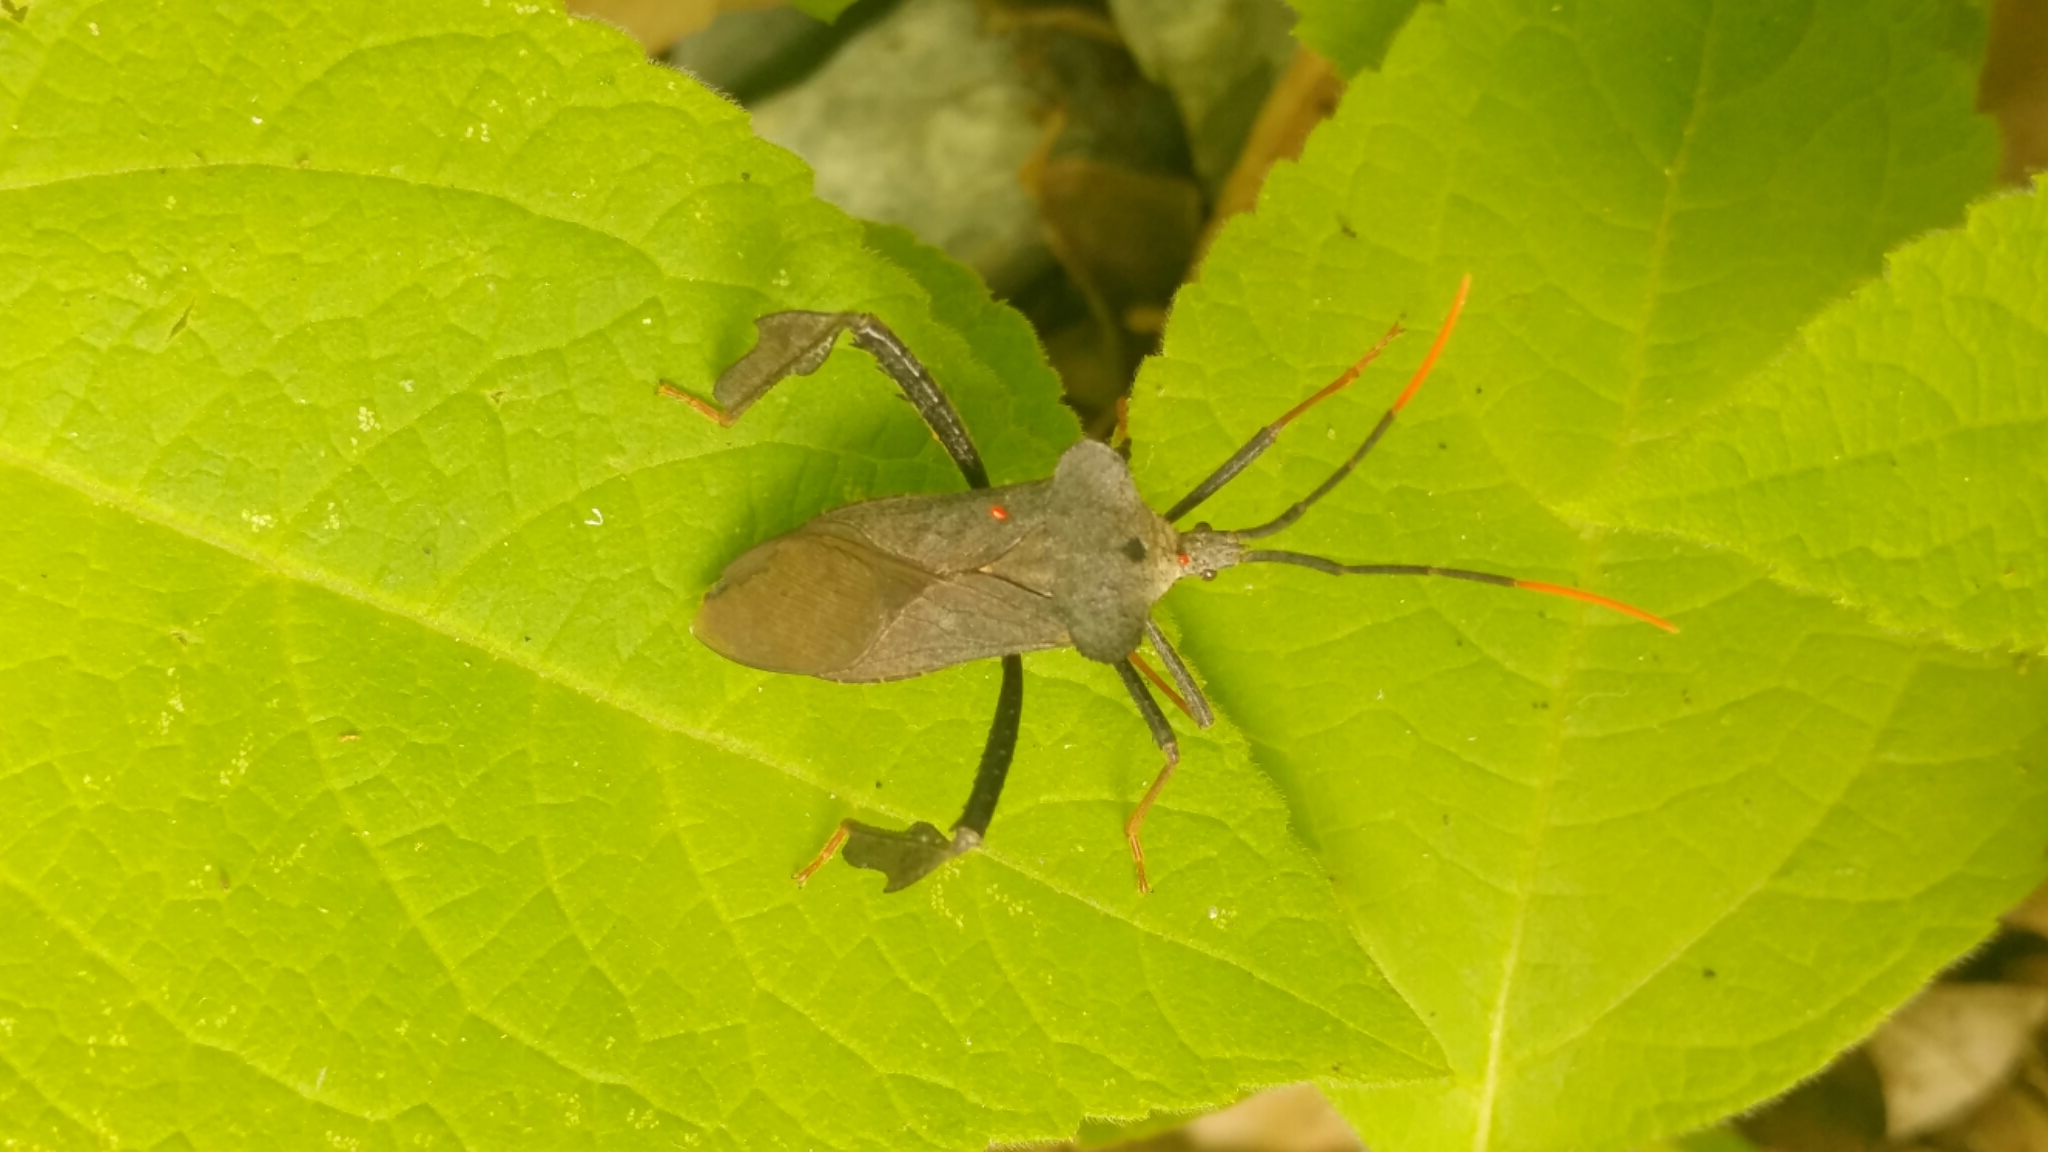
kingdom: Animalia
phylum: Arthropoda
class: Insecta
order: Hemiptera
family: Coreidae
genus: Acanthocephala
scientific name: Acanthocephala alata
